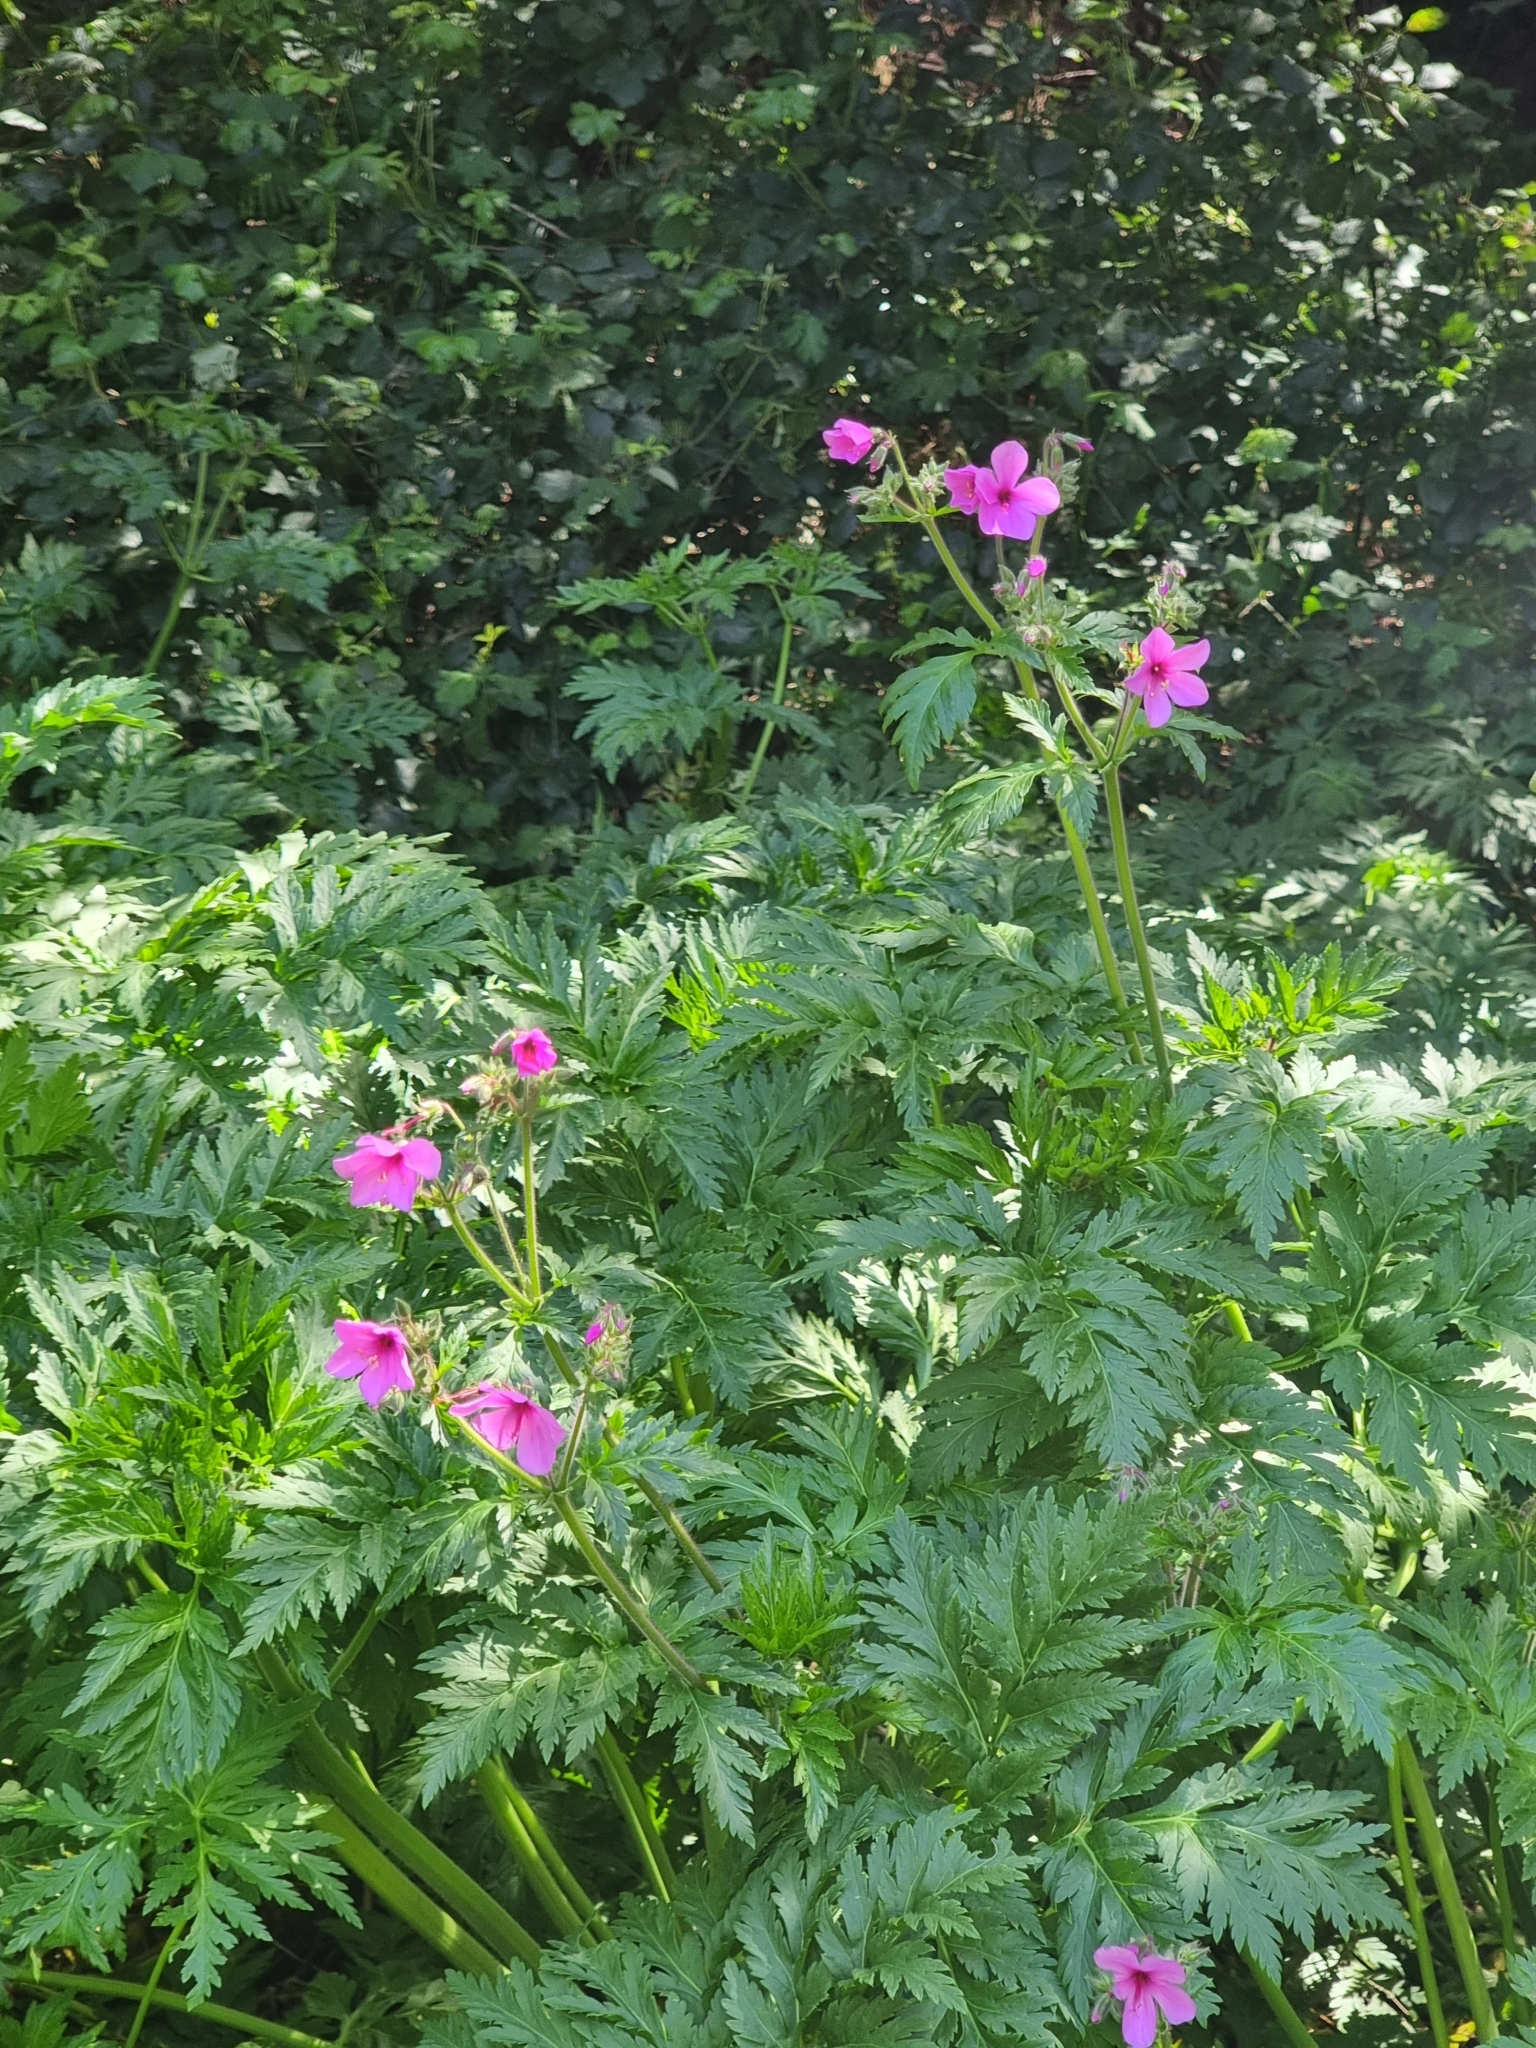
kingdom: Plantae
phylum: Tracheophyta
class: Magnoliopsida
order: Geraniales
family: Geraniaceae
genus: Geranium
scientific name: Geranium palmatum
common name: Canary island geranium
